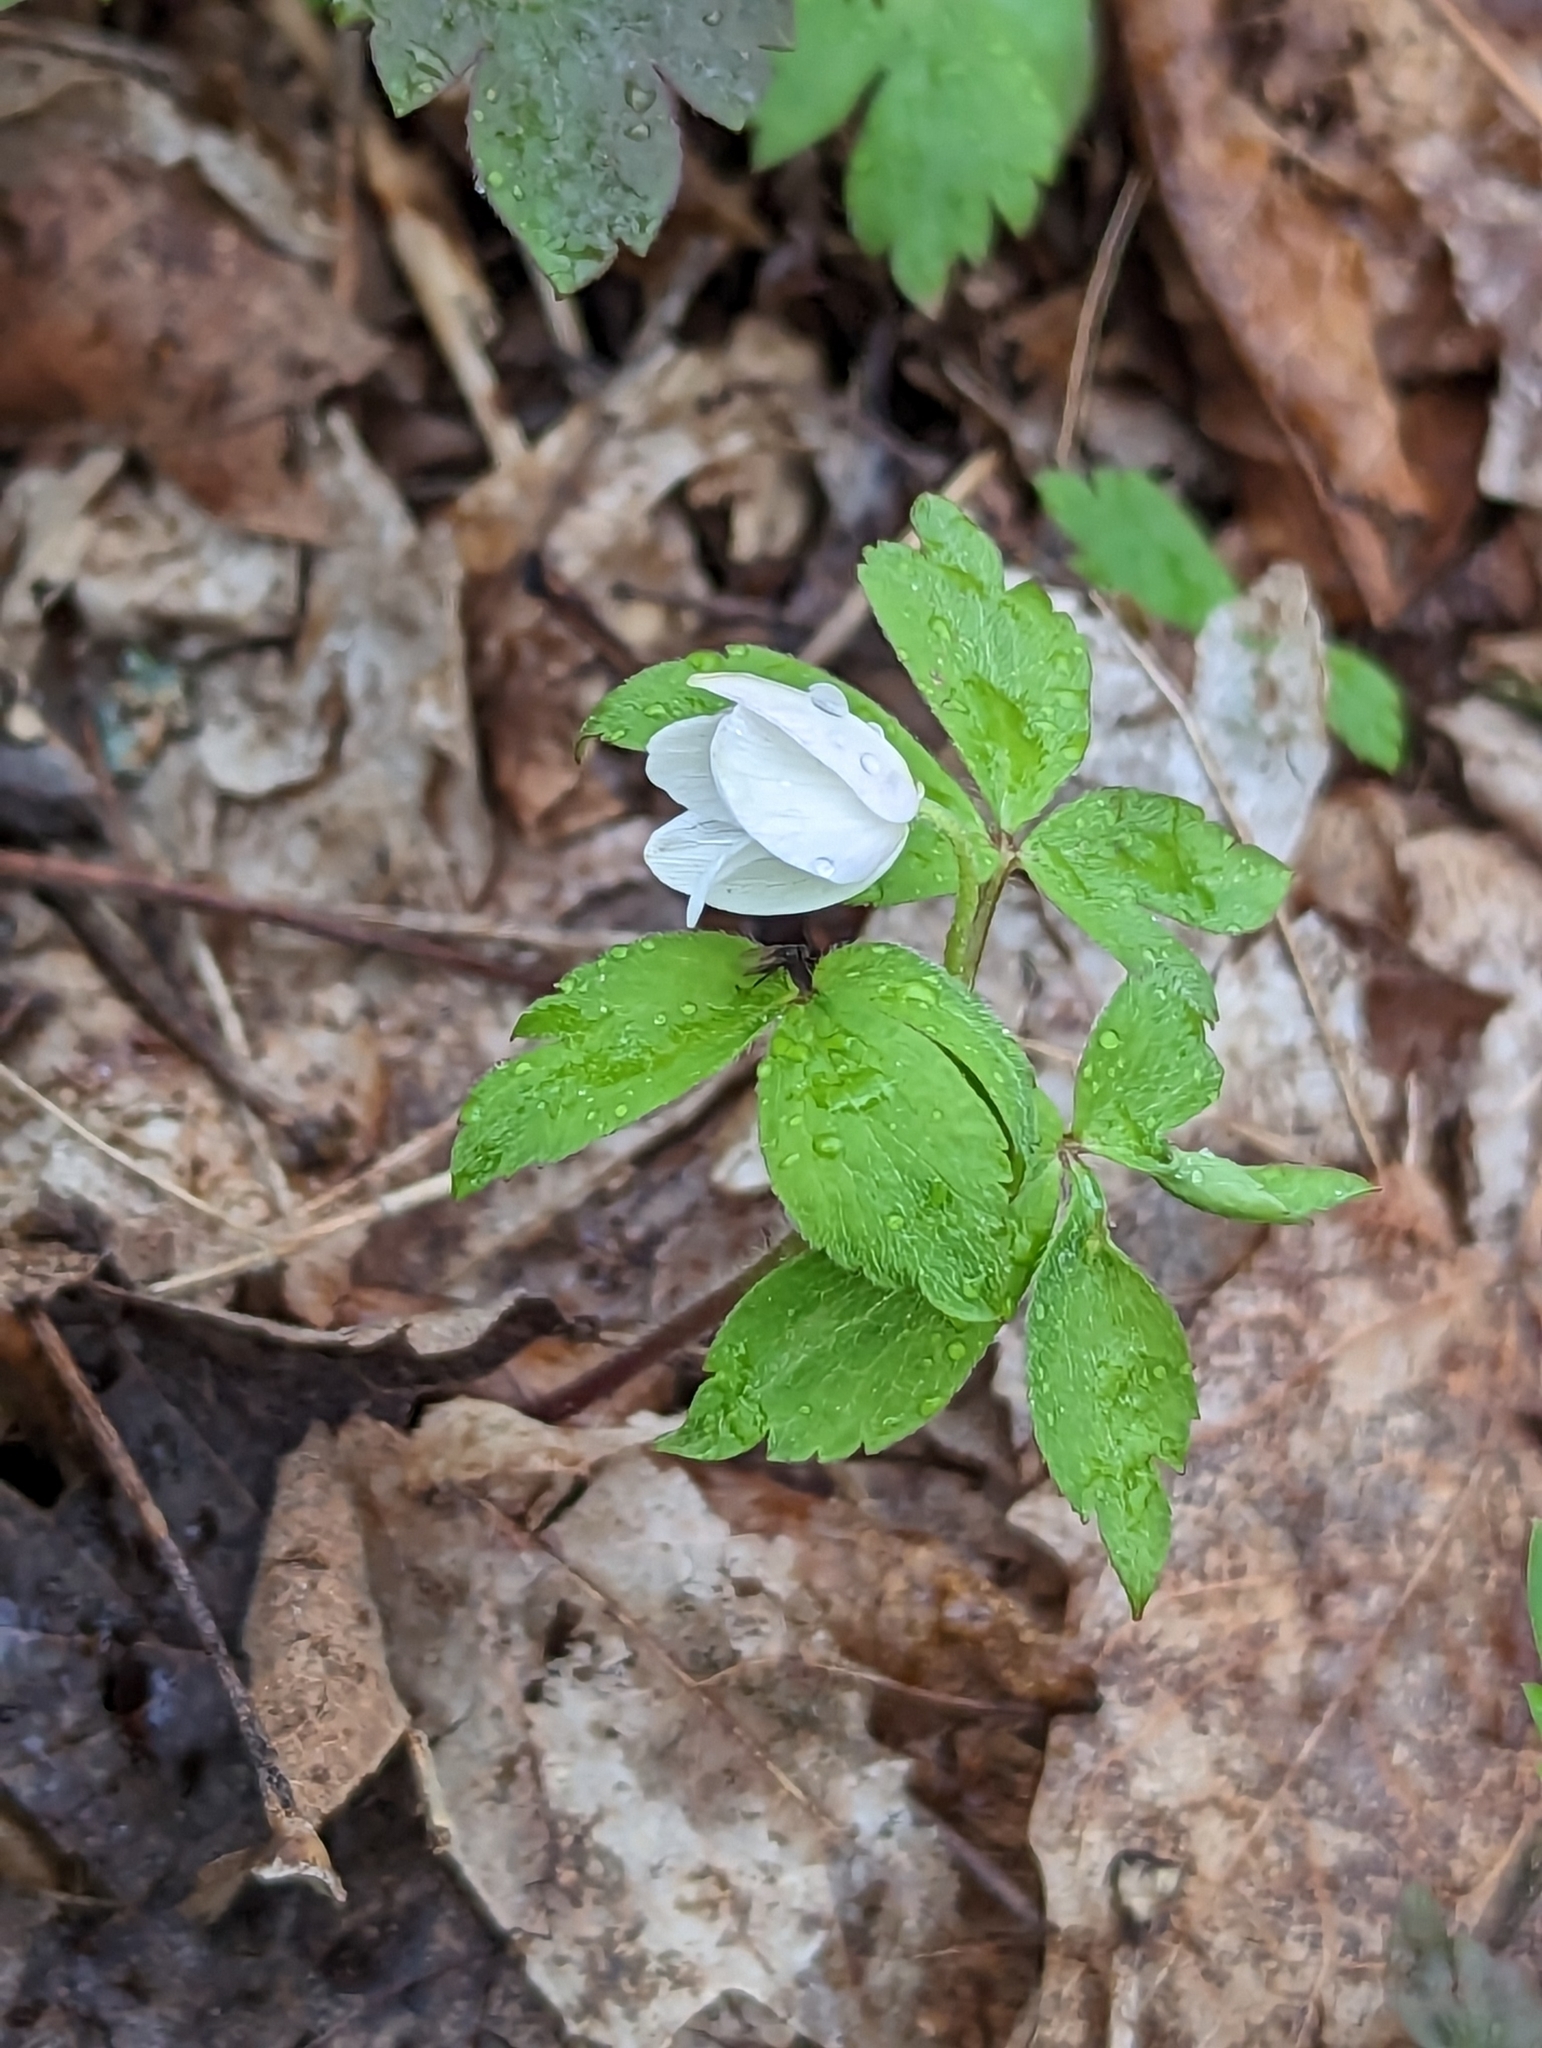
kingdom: Plantae
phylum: Tracheophyta
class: Magnoliopsida
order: Ranunculales
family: Ranunculaceae
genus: Anemone
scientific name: Anemone quinquefolia
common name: Wood anemone
